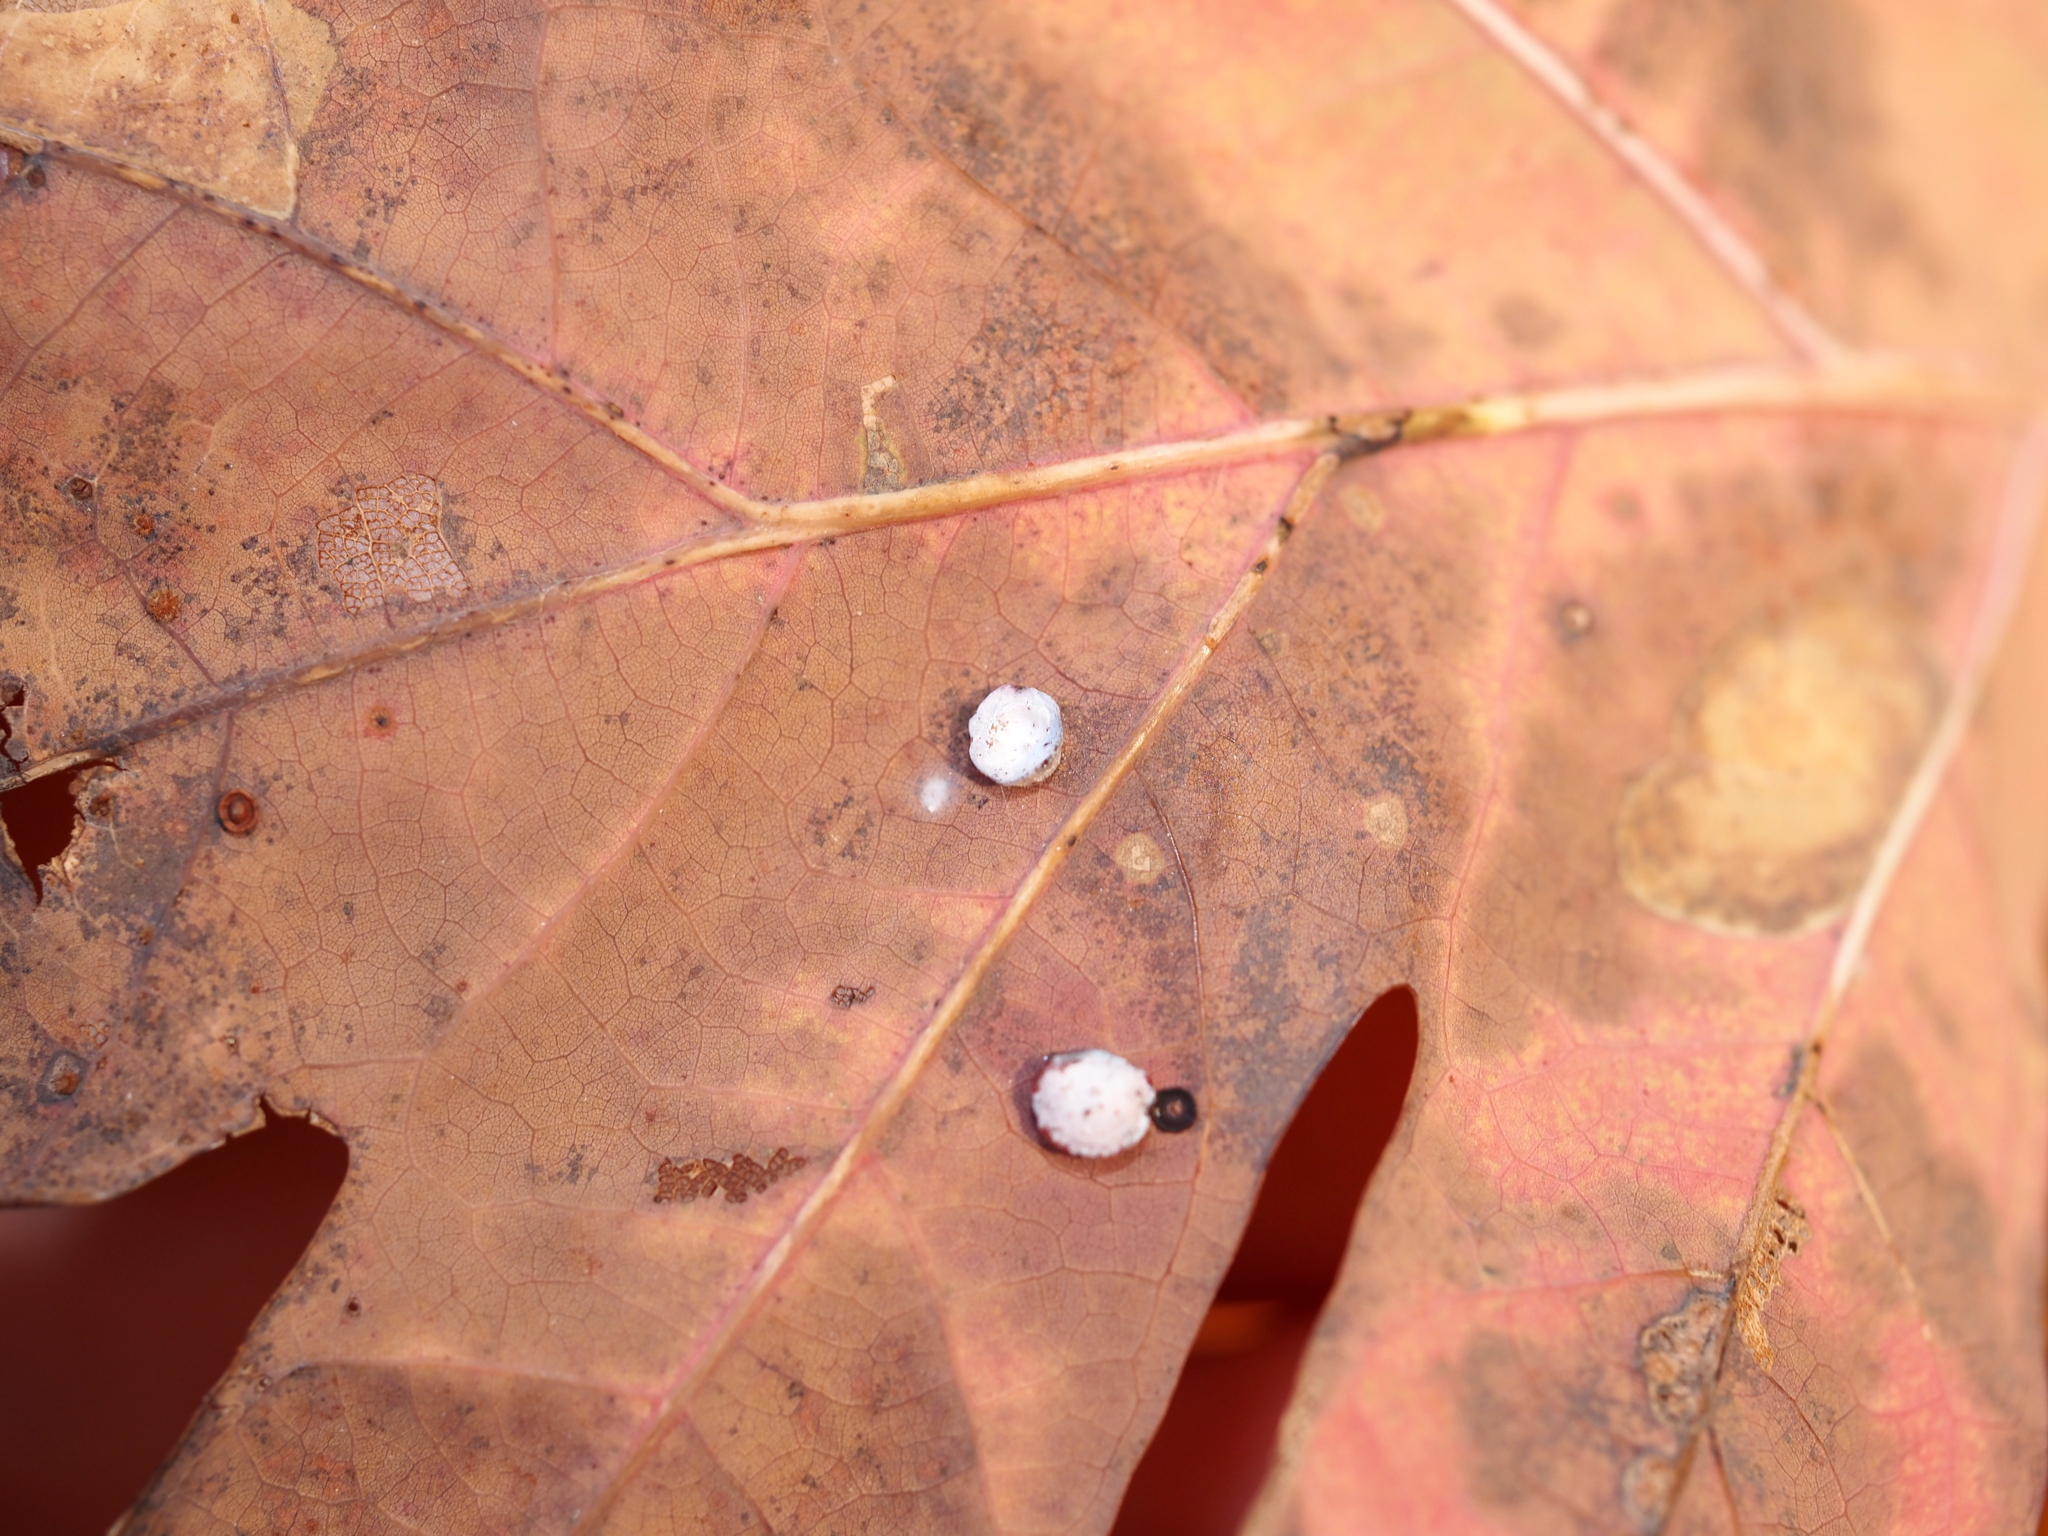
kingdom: Animalia
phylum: Arthropoda
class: Insecta
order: Hymenoptera
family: Cynipidae
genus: Phylloteras
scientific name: Phylloteras poculum
